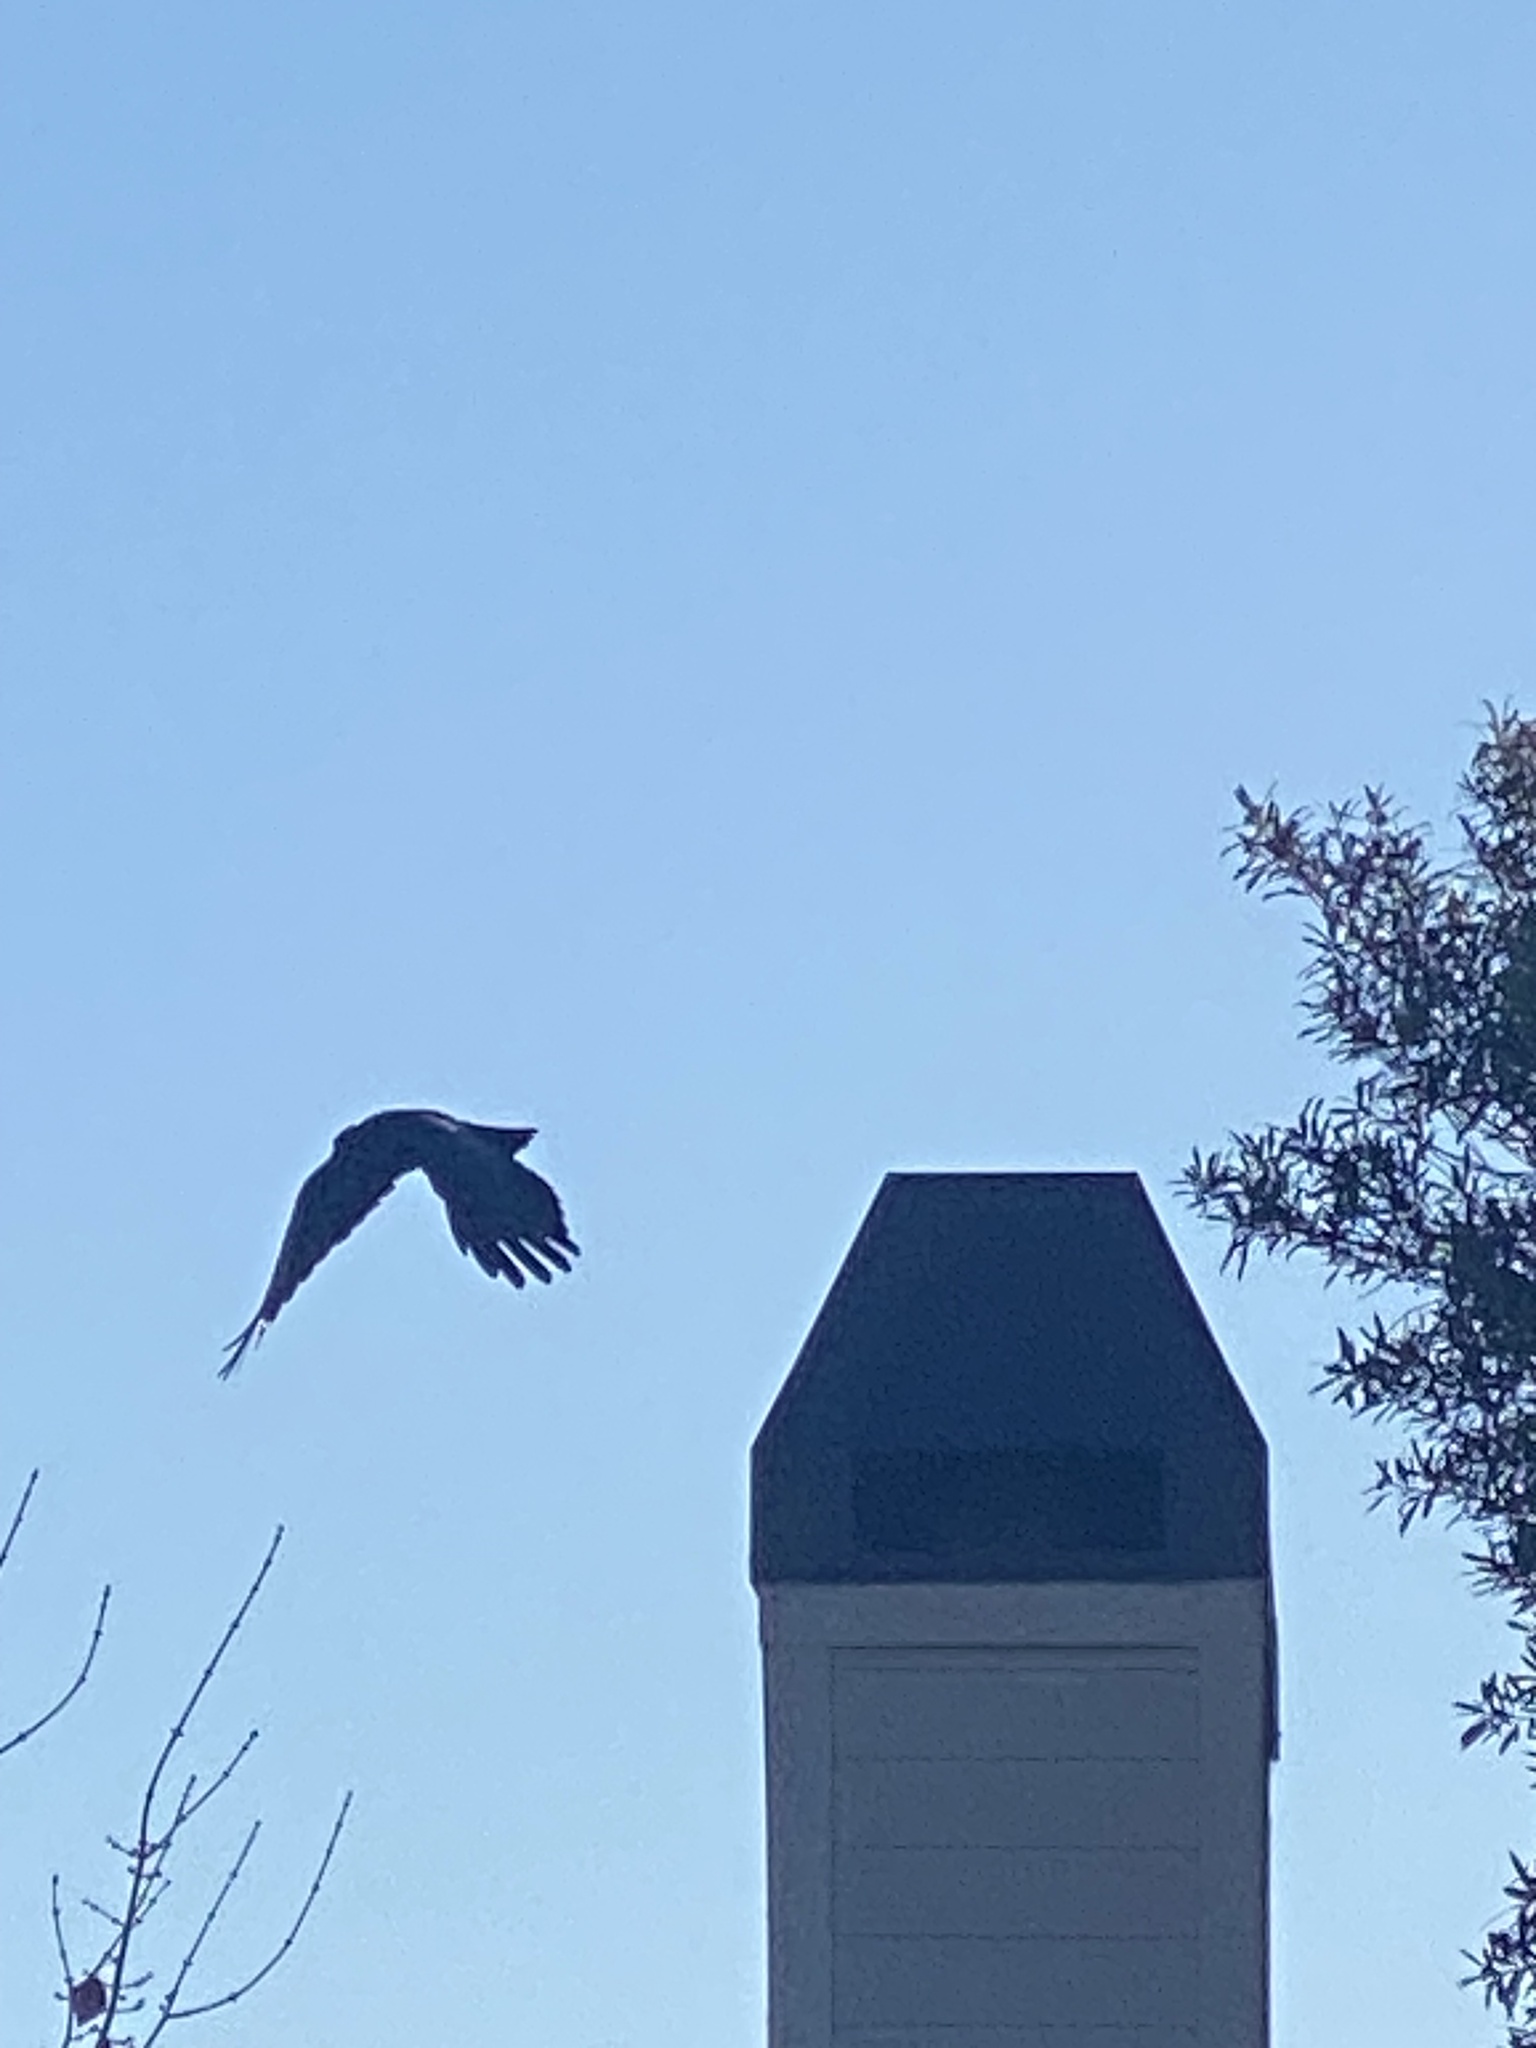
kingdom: Animalia
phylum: Chordata
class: Aves
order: Passeriformes
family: Corvidae
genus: Corvus
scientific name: Corvus brachyrhynchos
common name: American crow
